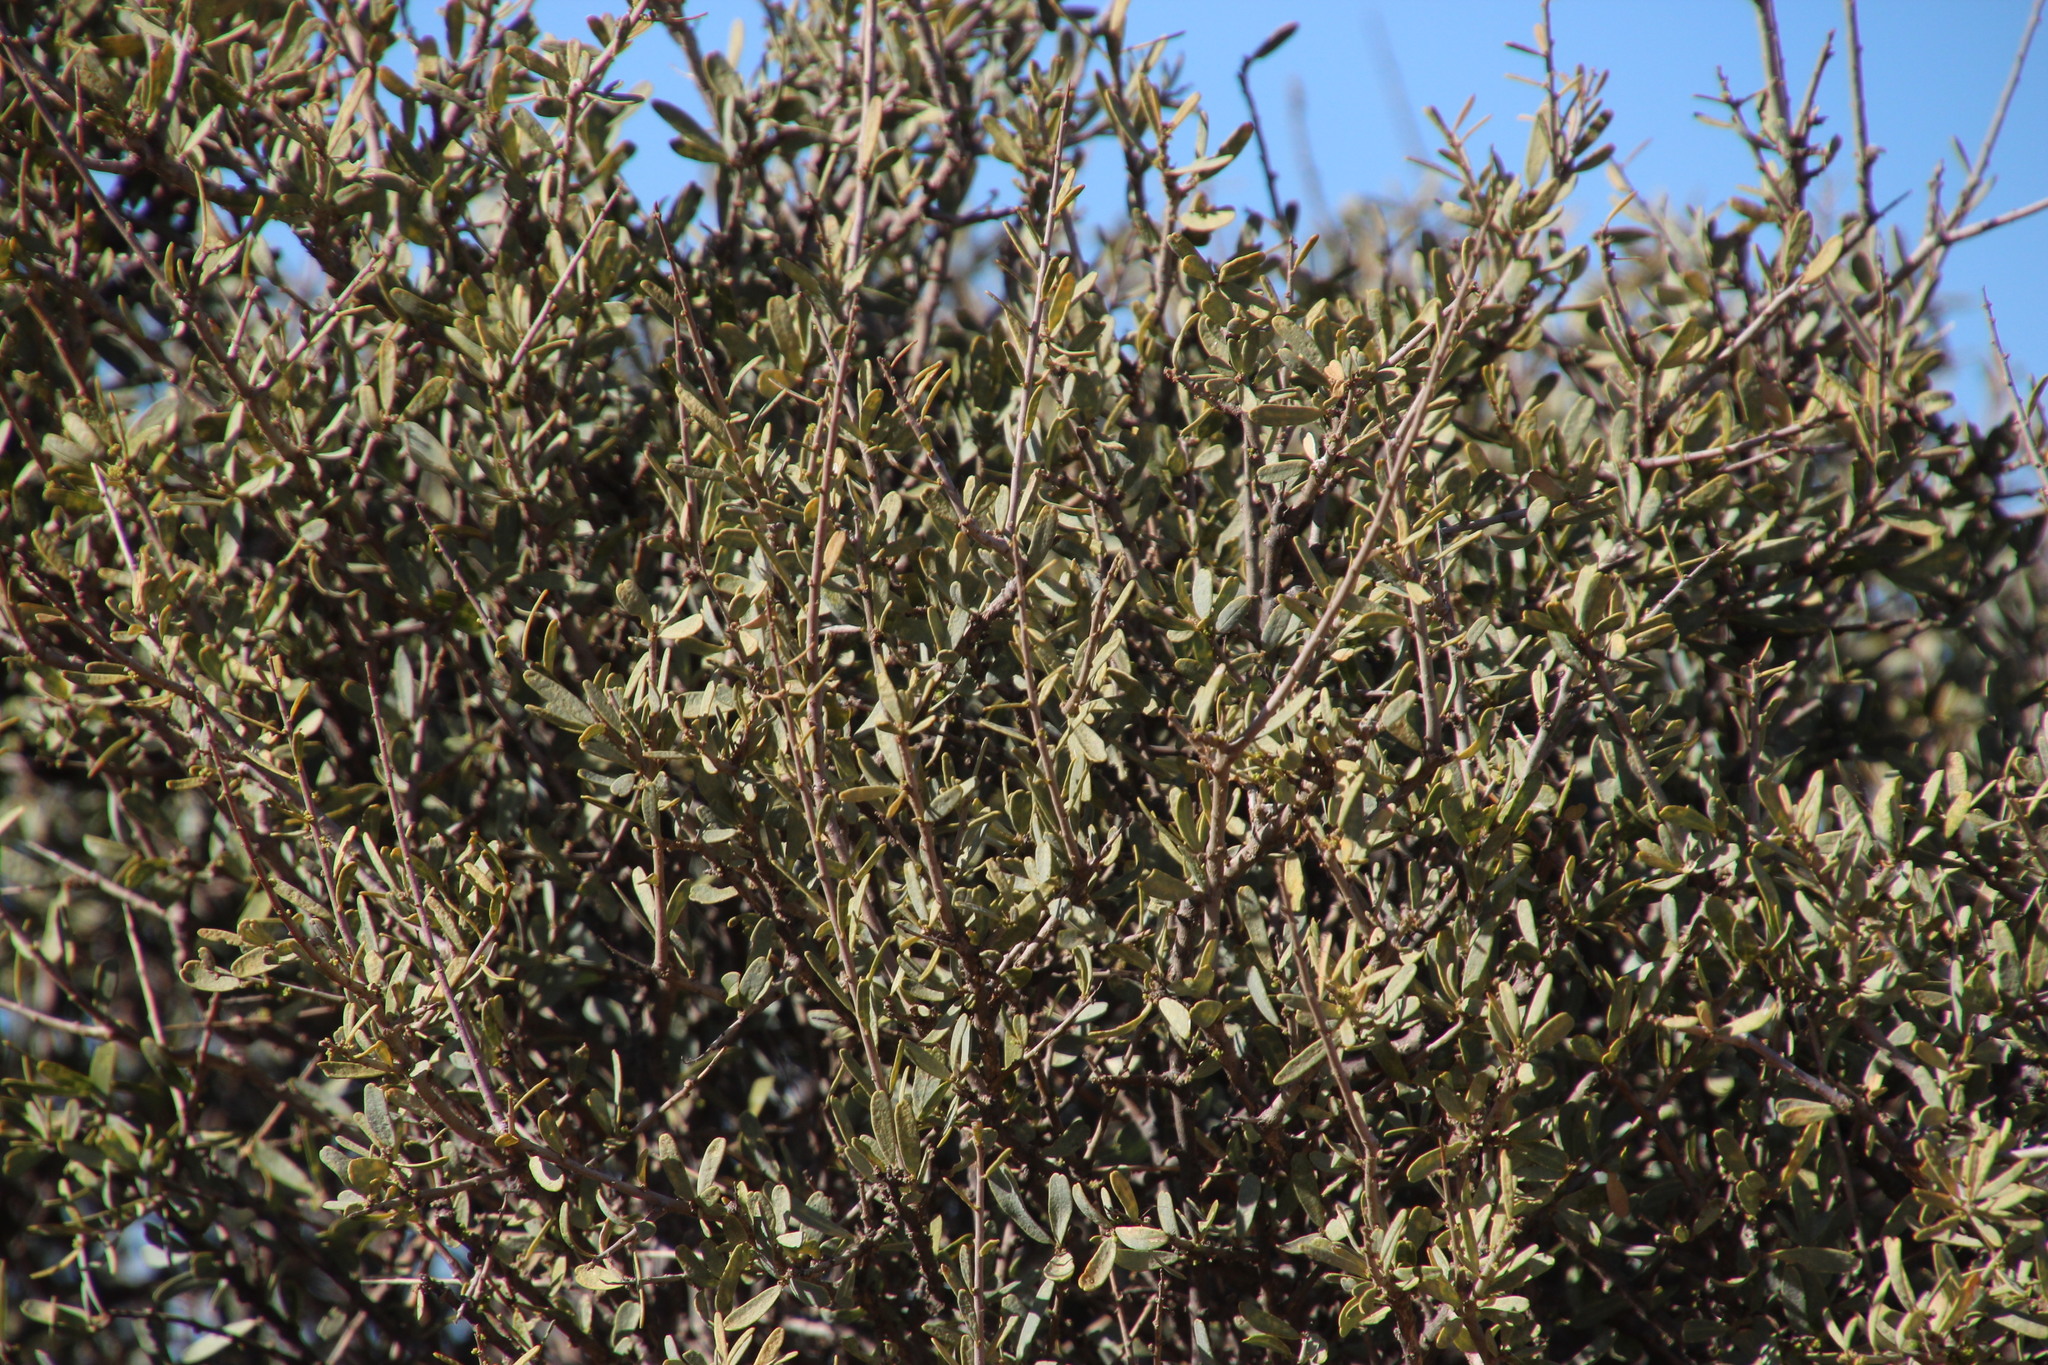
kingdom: Plantae
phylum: Tracheophyta
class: Magnoliopsida
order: Brassicales
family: Capparaceae
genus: Boscia
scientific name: Boscia albitrunca
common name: Caper bush
